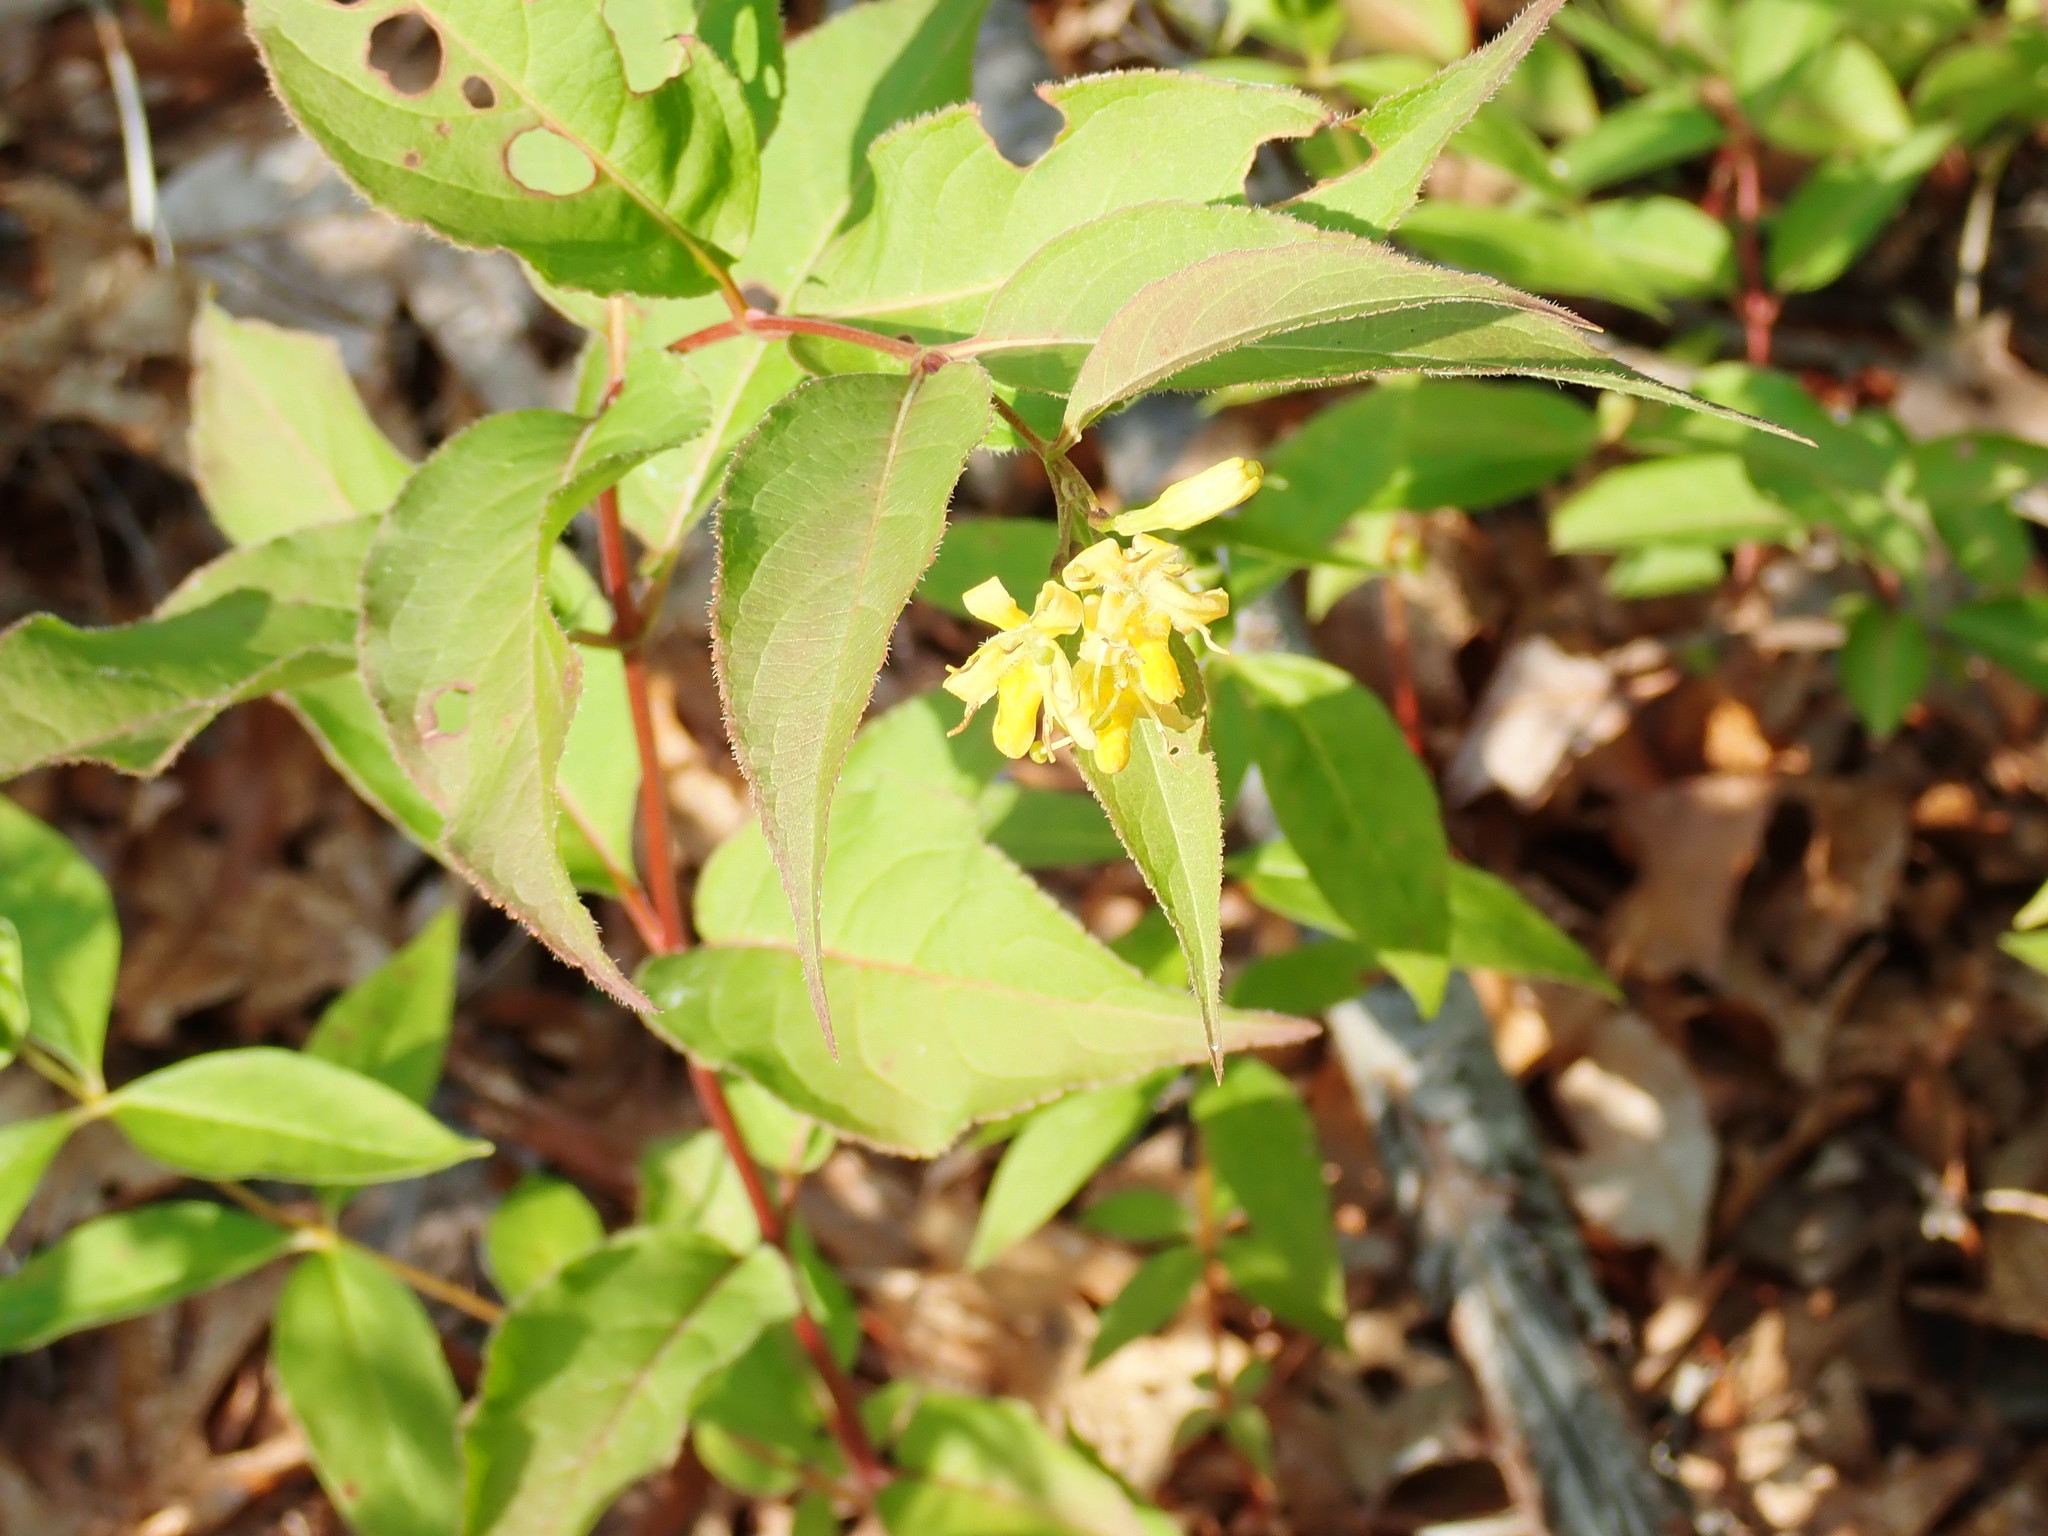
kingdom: Plantae
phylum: Tracheophyta
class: Magnoliopsida
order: Dipsacales
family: Caprifoliaceae
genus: Diervilla
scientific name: Diervilla lonicera
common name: Bush-honeysuckle
